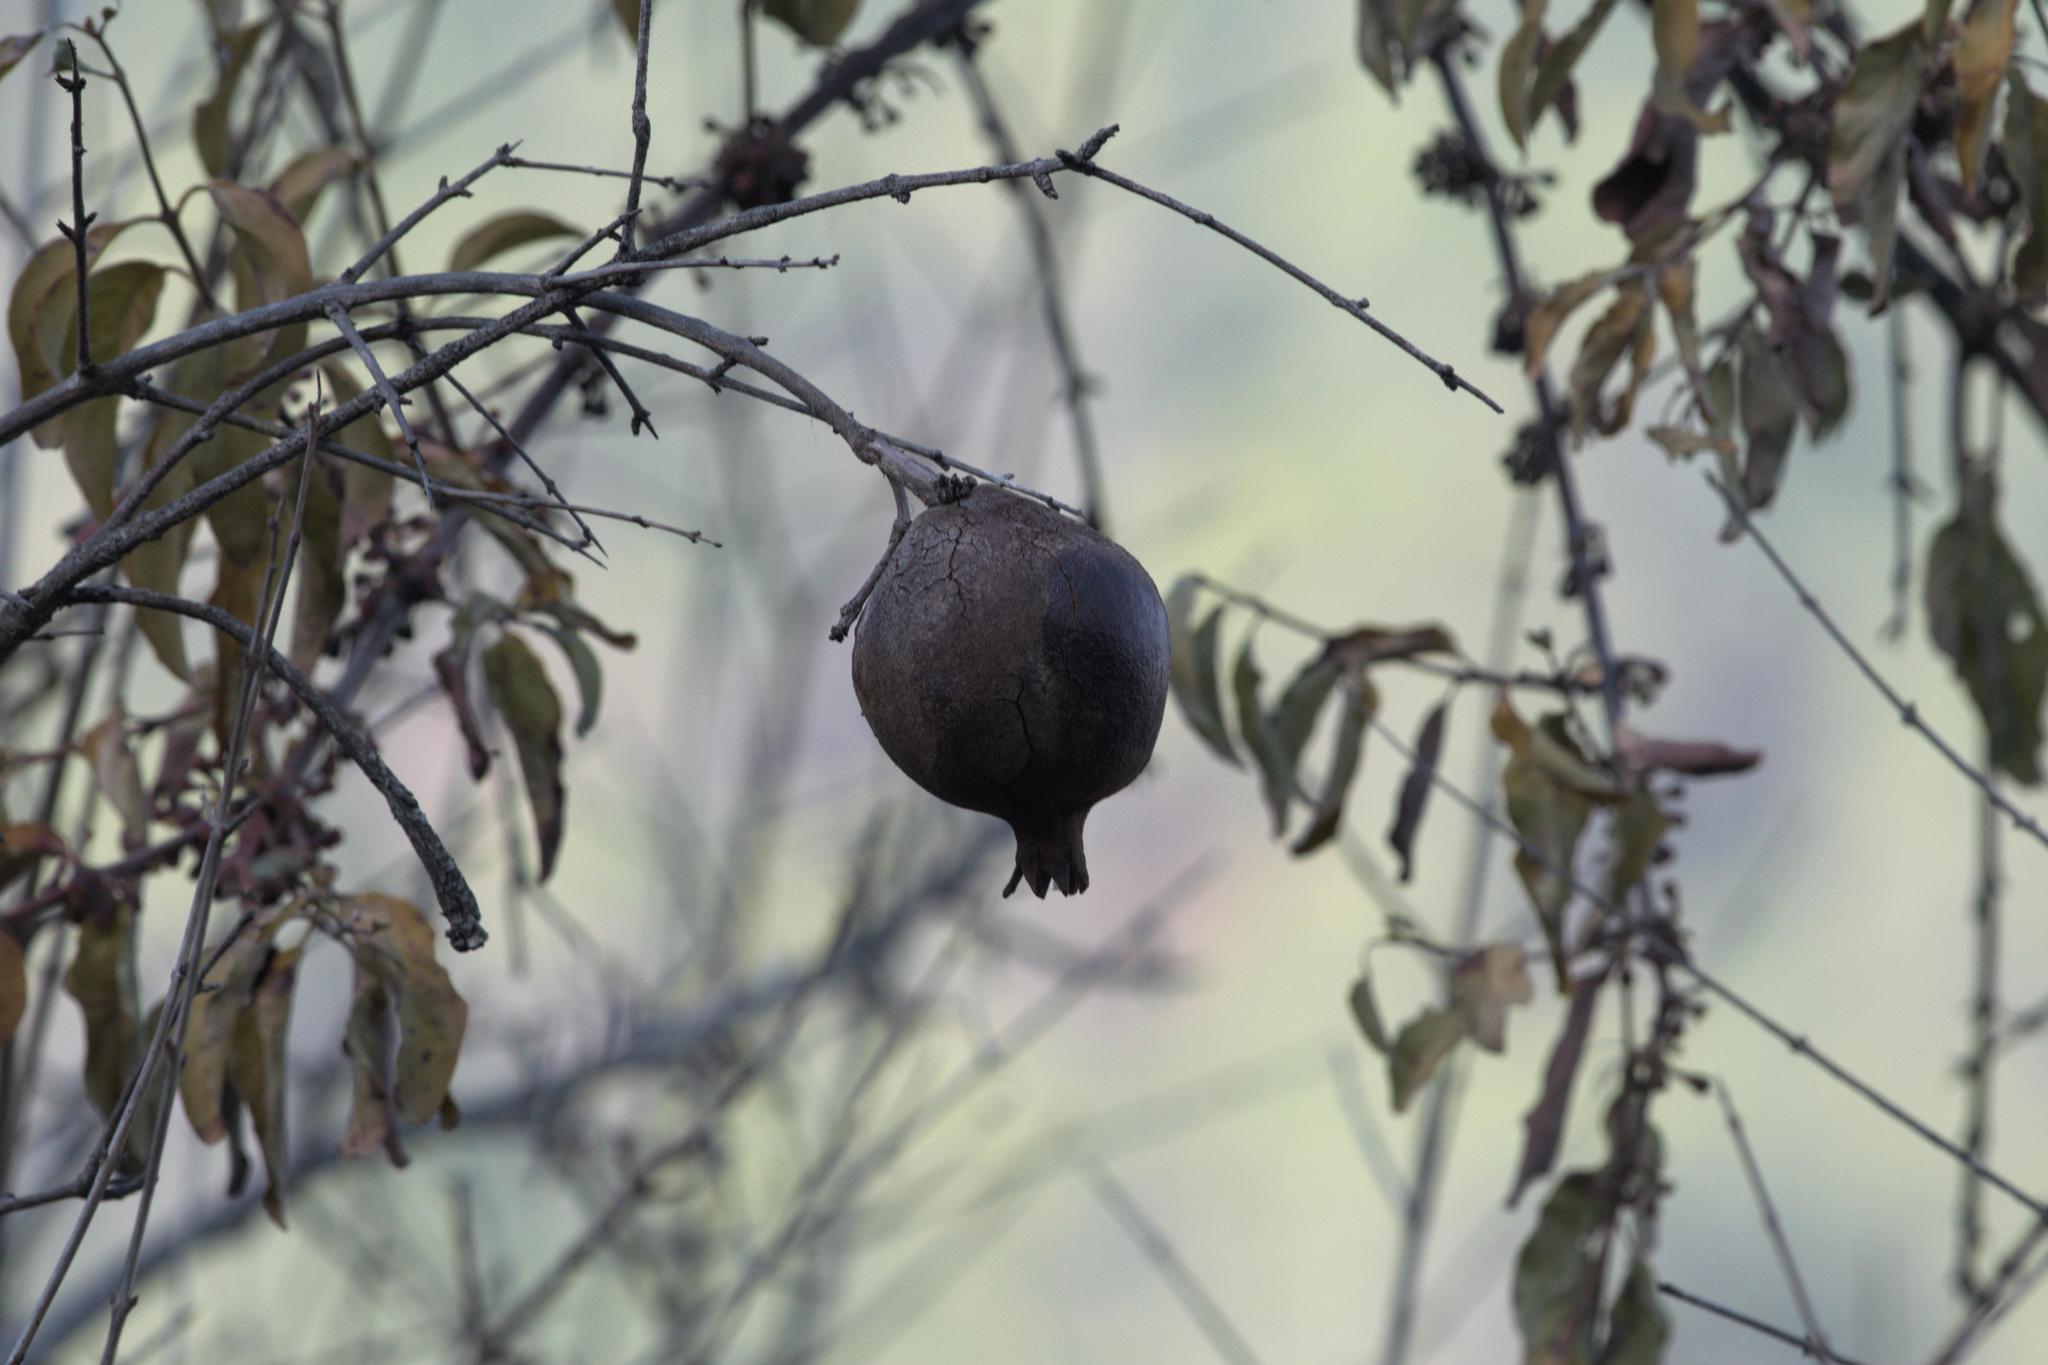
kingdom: Plantae
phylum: Tracheophyta
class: Magnoliopsida
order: Myrtales
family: Lythraceae
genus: Punica
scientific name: Punica granatum
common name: Pomegranate
